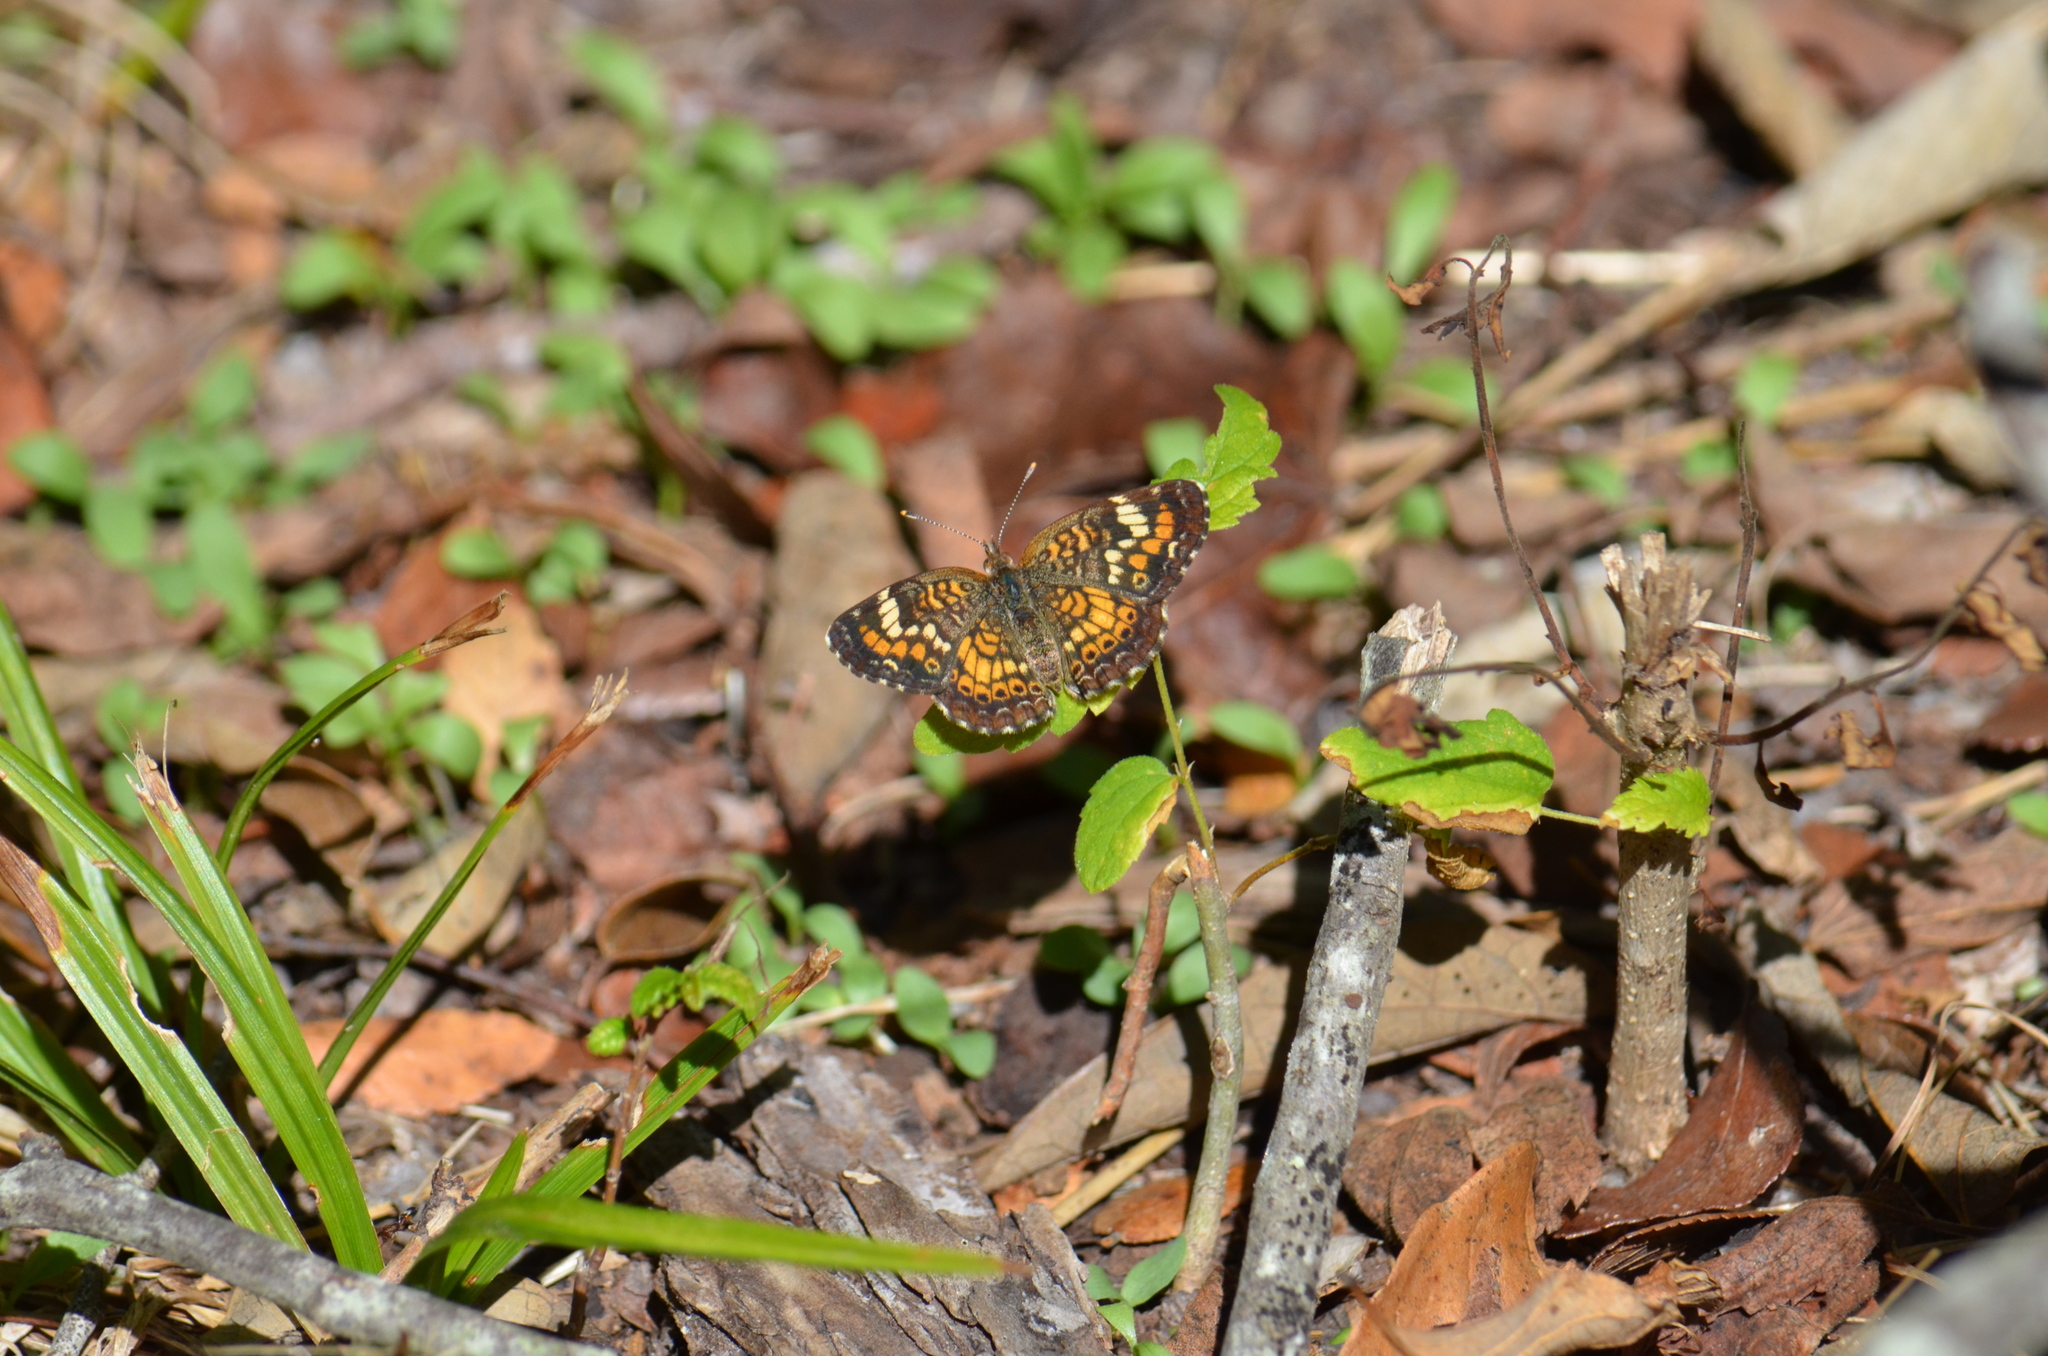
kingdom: Animalia
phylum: Arthropoda
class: Insecta
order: Lepidoptera
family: Nymphalidae
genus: Phyciodes
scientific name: Phyciodes phaon
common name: Phaon crescent
